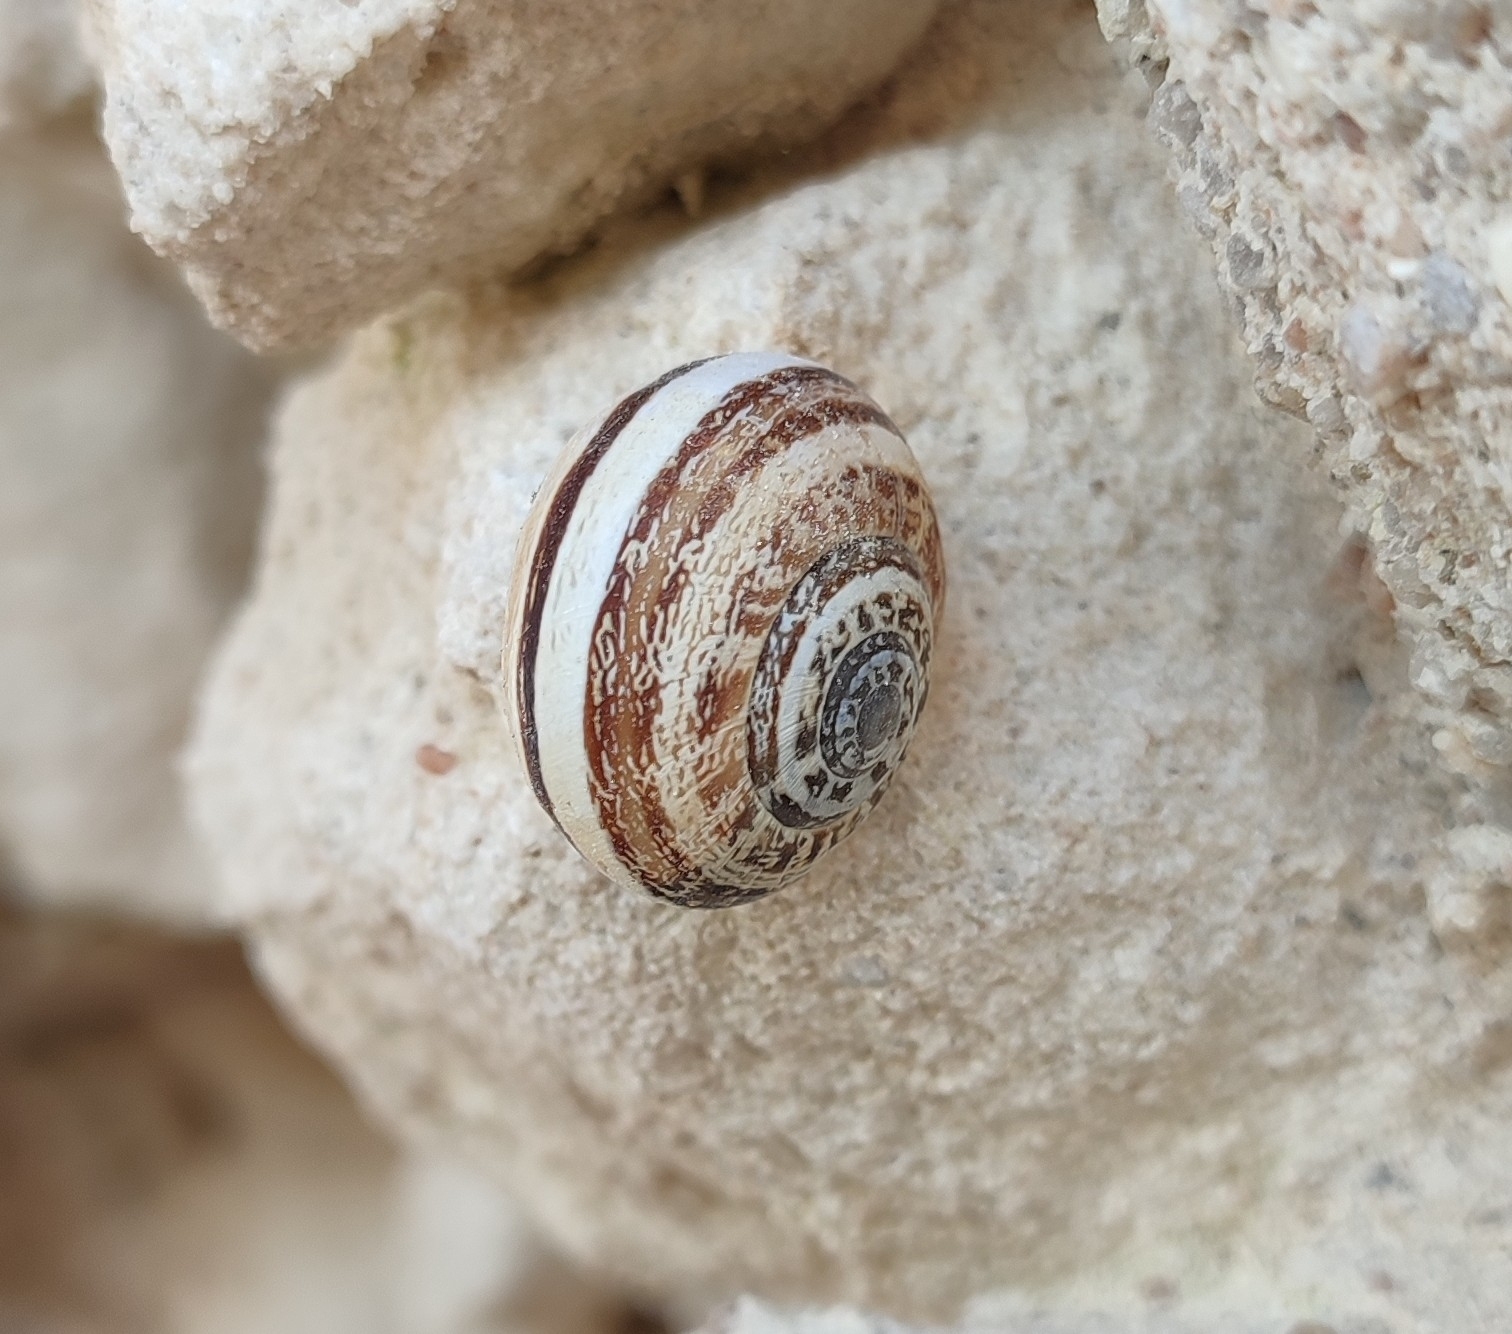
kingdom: Animalia
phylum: Mollusca
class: Gastropoda
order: Stylommatophora
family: Helicidae
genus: Eobania
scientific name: Eobania vermiculata
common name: Chocolateband snail
